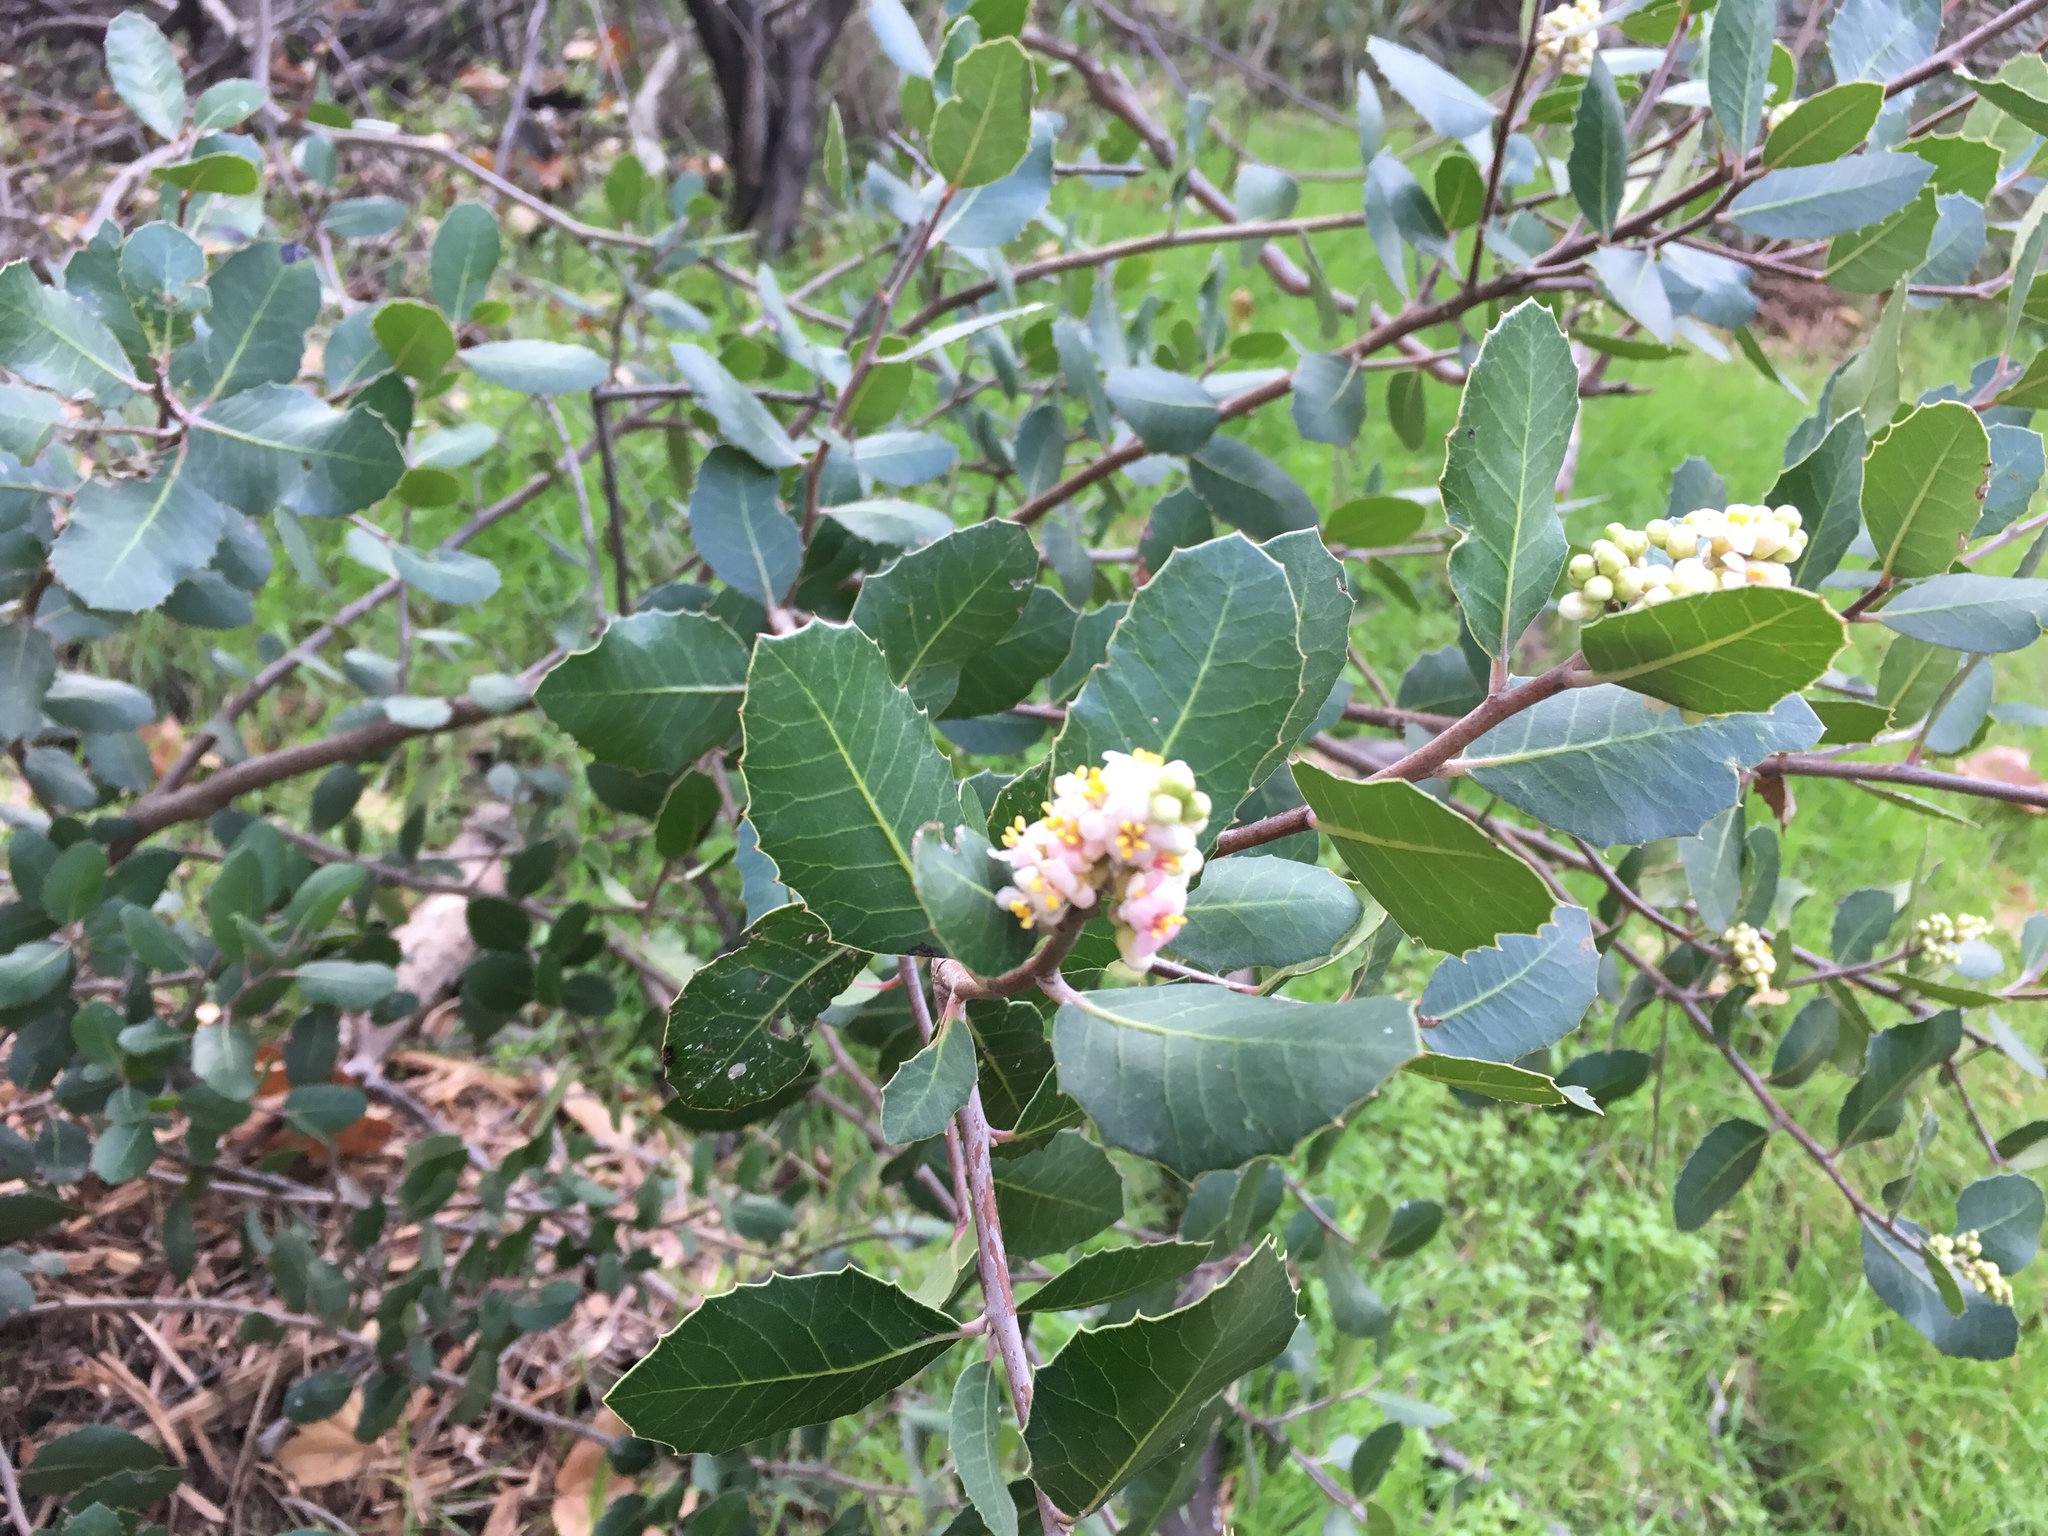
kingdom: Plantae
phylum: Tracheophyta
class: Magnoliopsida
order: Sapindales
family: Anacardiaceae
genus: Rhus
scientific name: Rhus integrifolia
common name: Lemonade sumac
